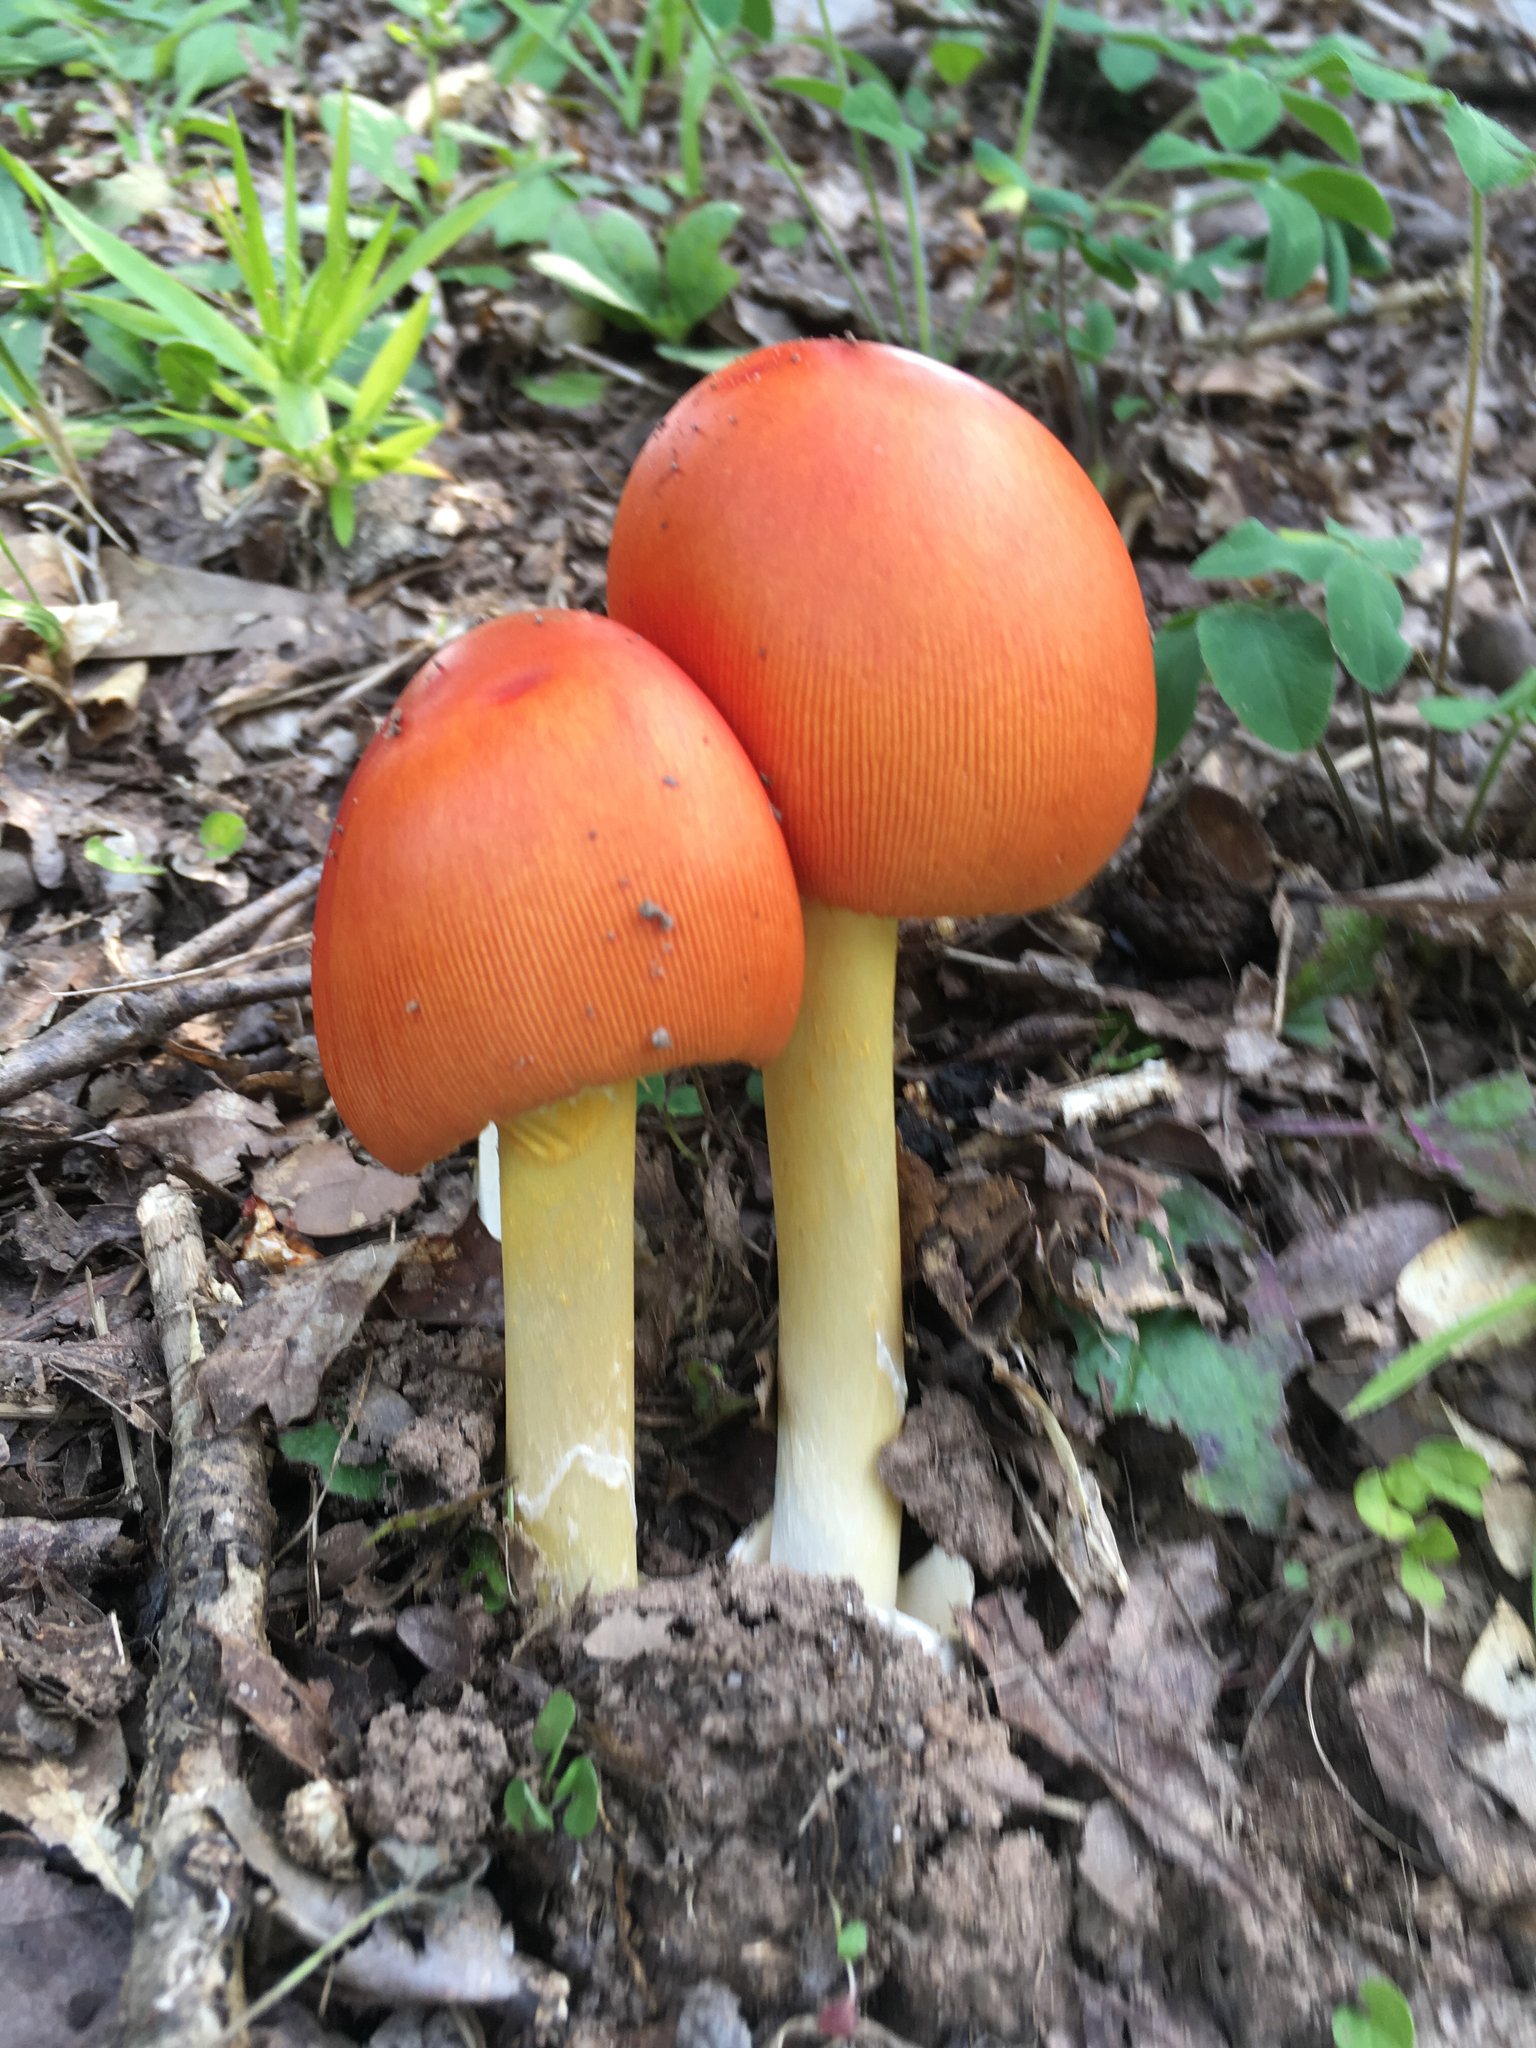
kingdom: Fungi
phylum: Basidiomycota
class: Agaricomycetes
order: Agaricales
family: Amanitaceae
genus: Amanita
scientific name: Amanita jacksonii
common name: Jackson's slender caesar
